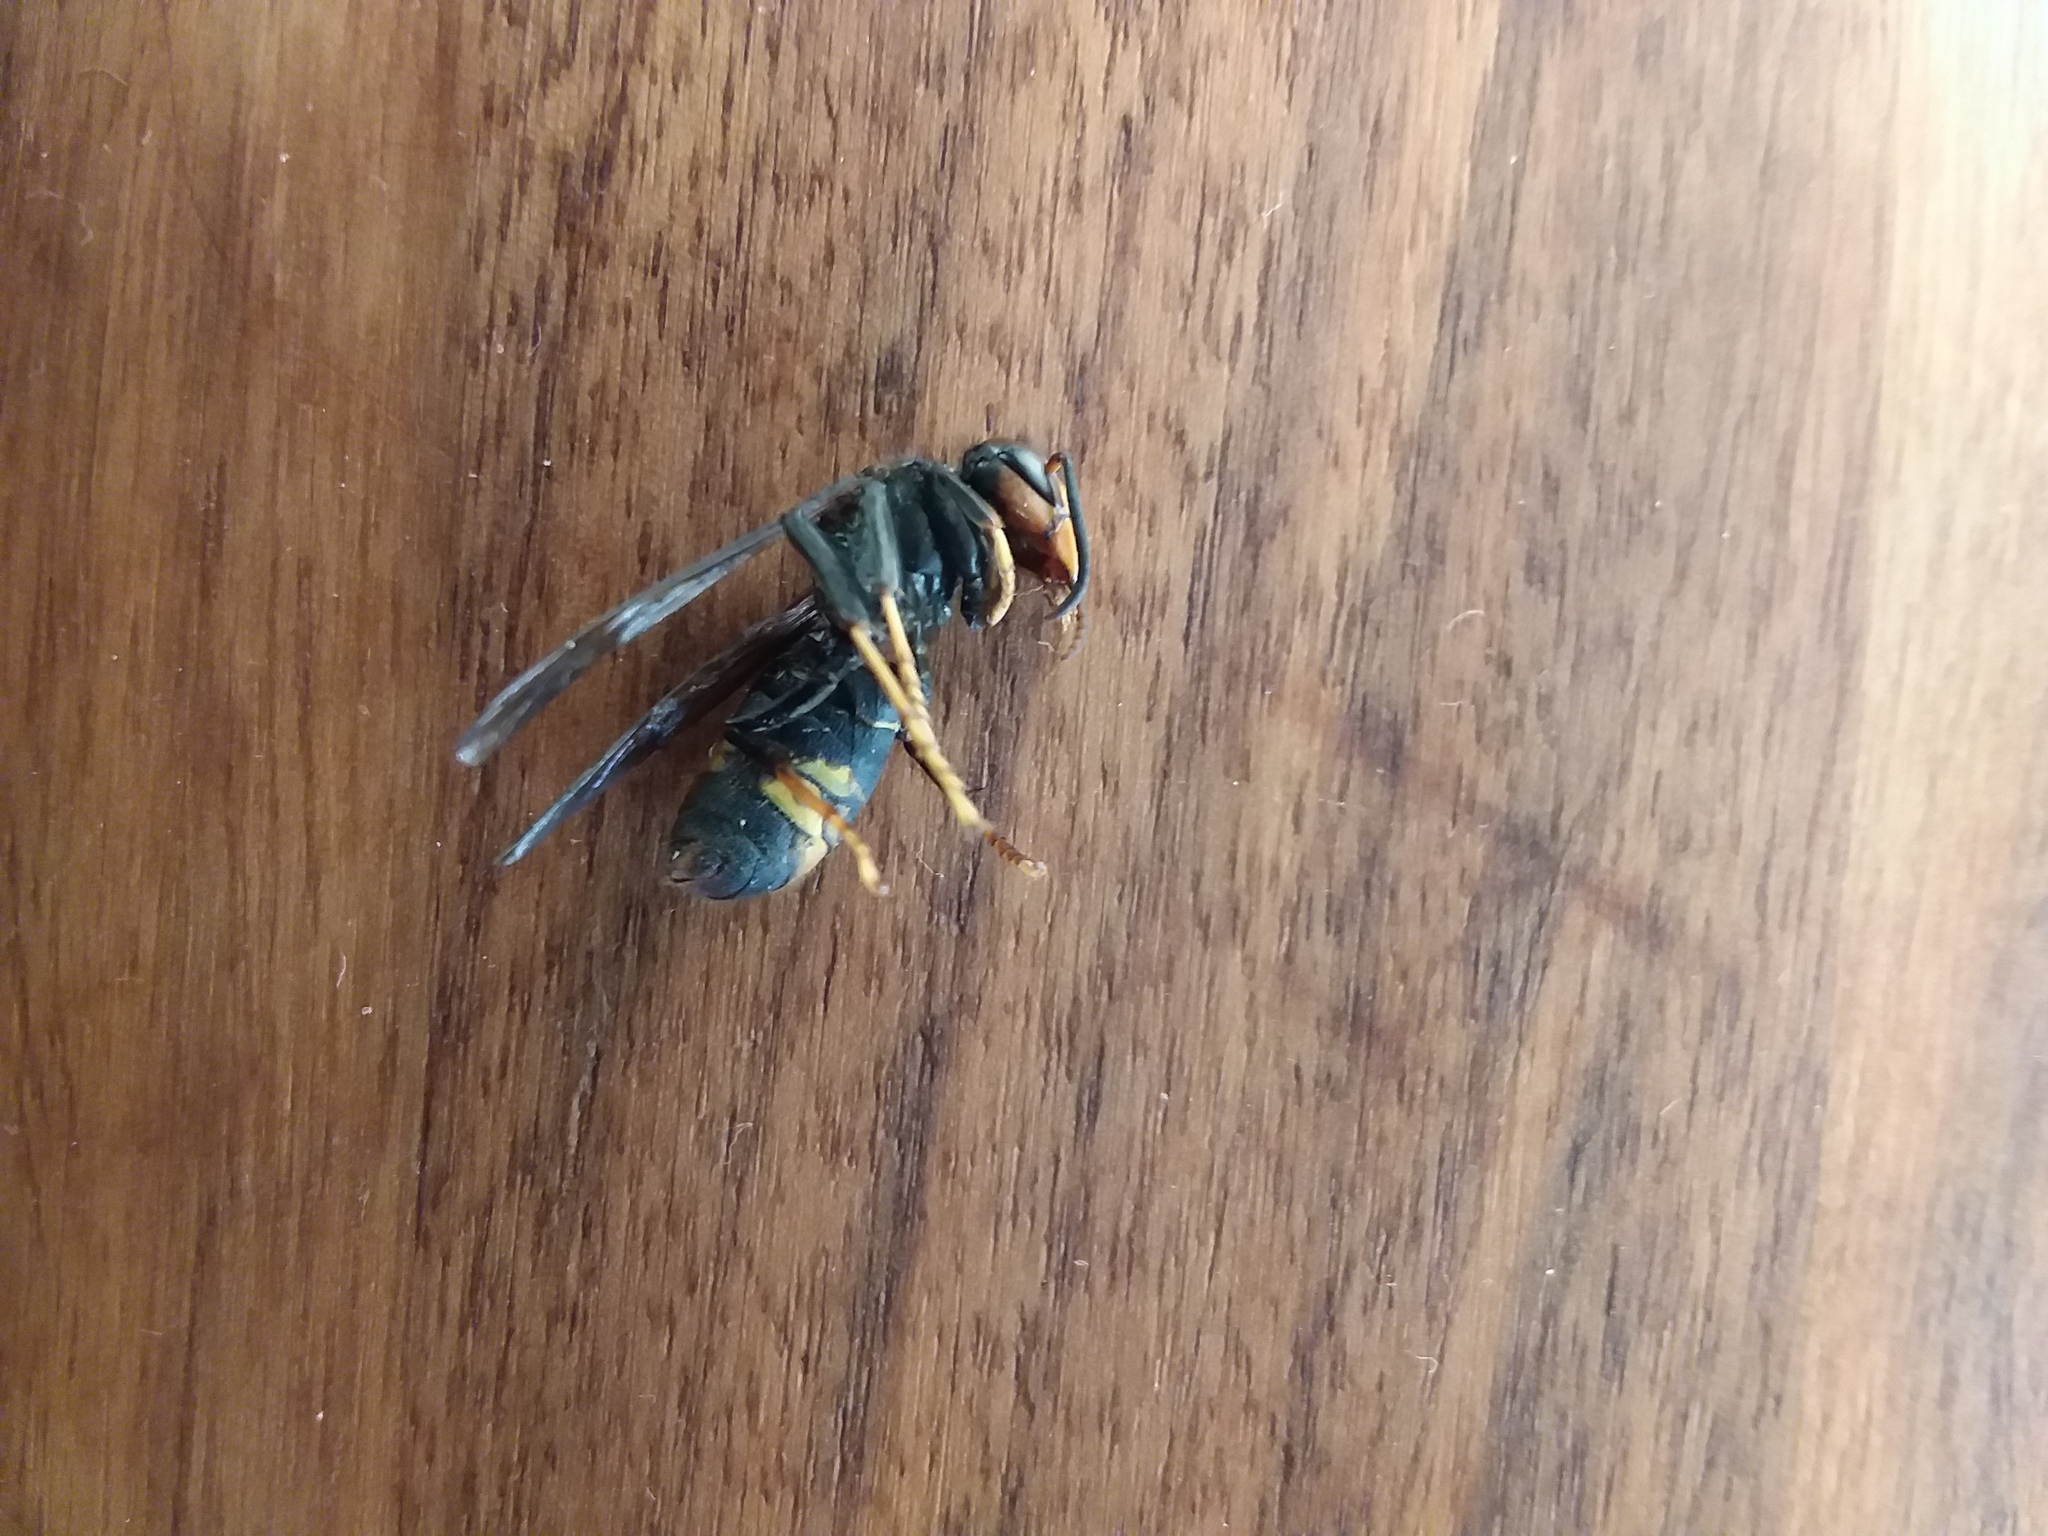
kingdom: Animalia
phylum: Arthropoda
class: Insecta
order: Hymenoptera
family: Vespidae
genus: Vespa
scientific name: Vespa velutina
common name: Asian hornet
